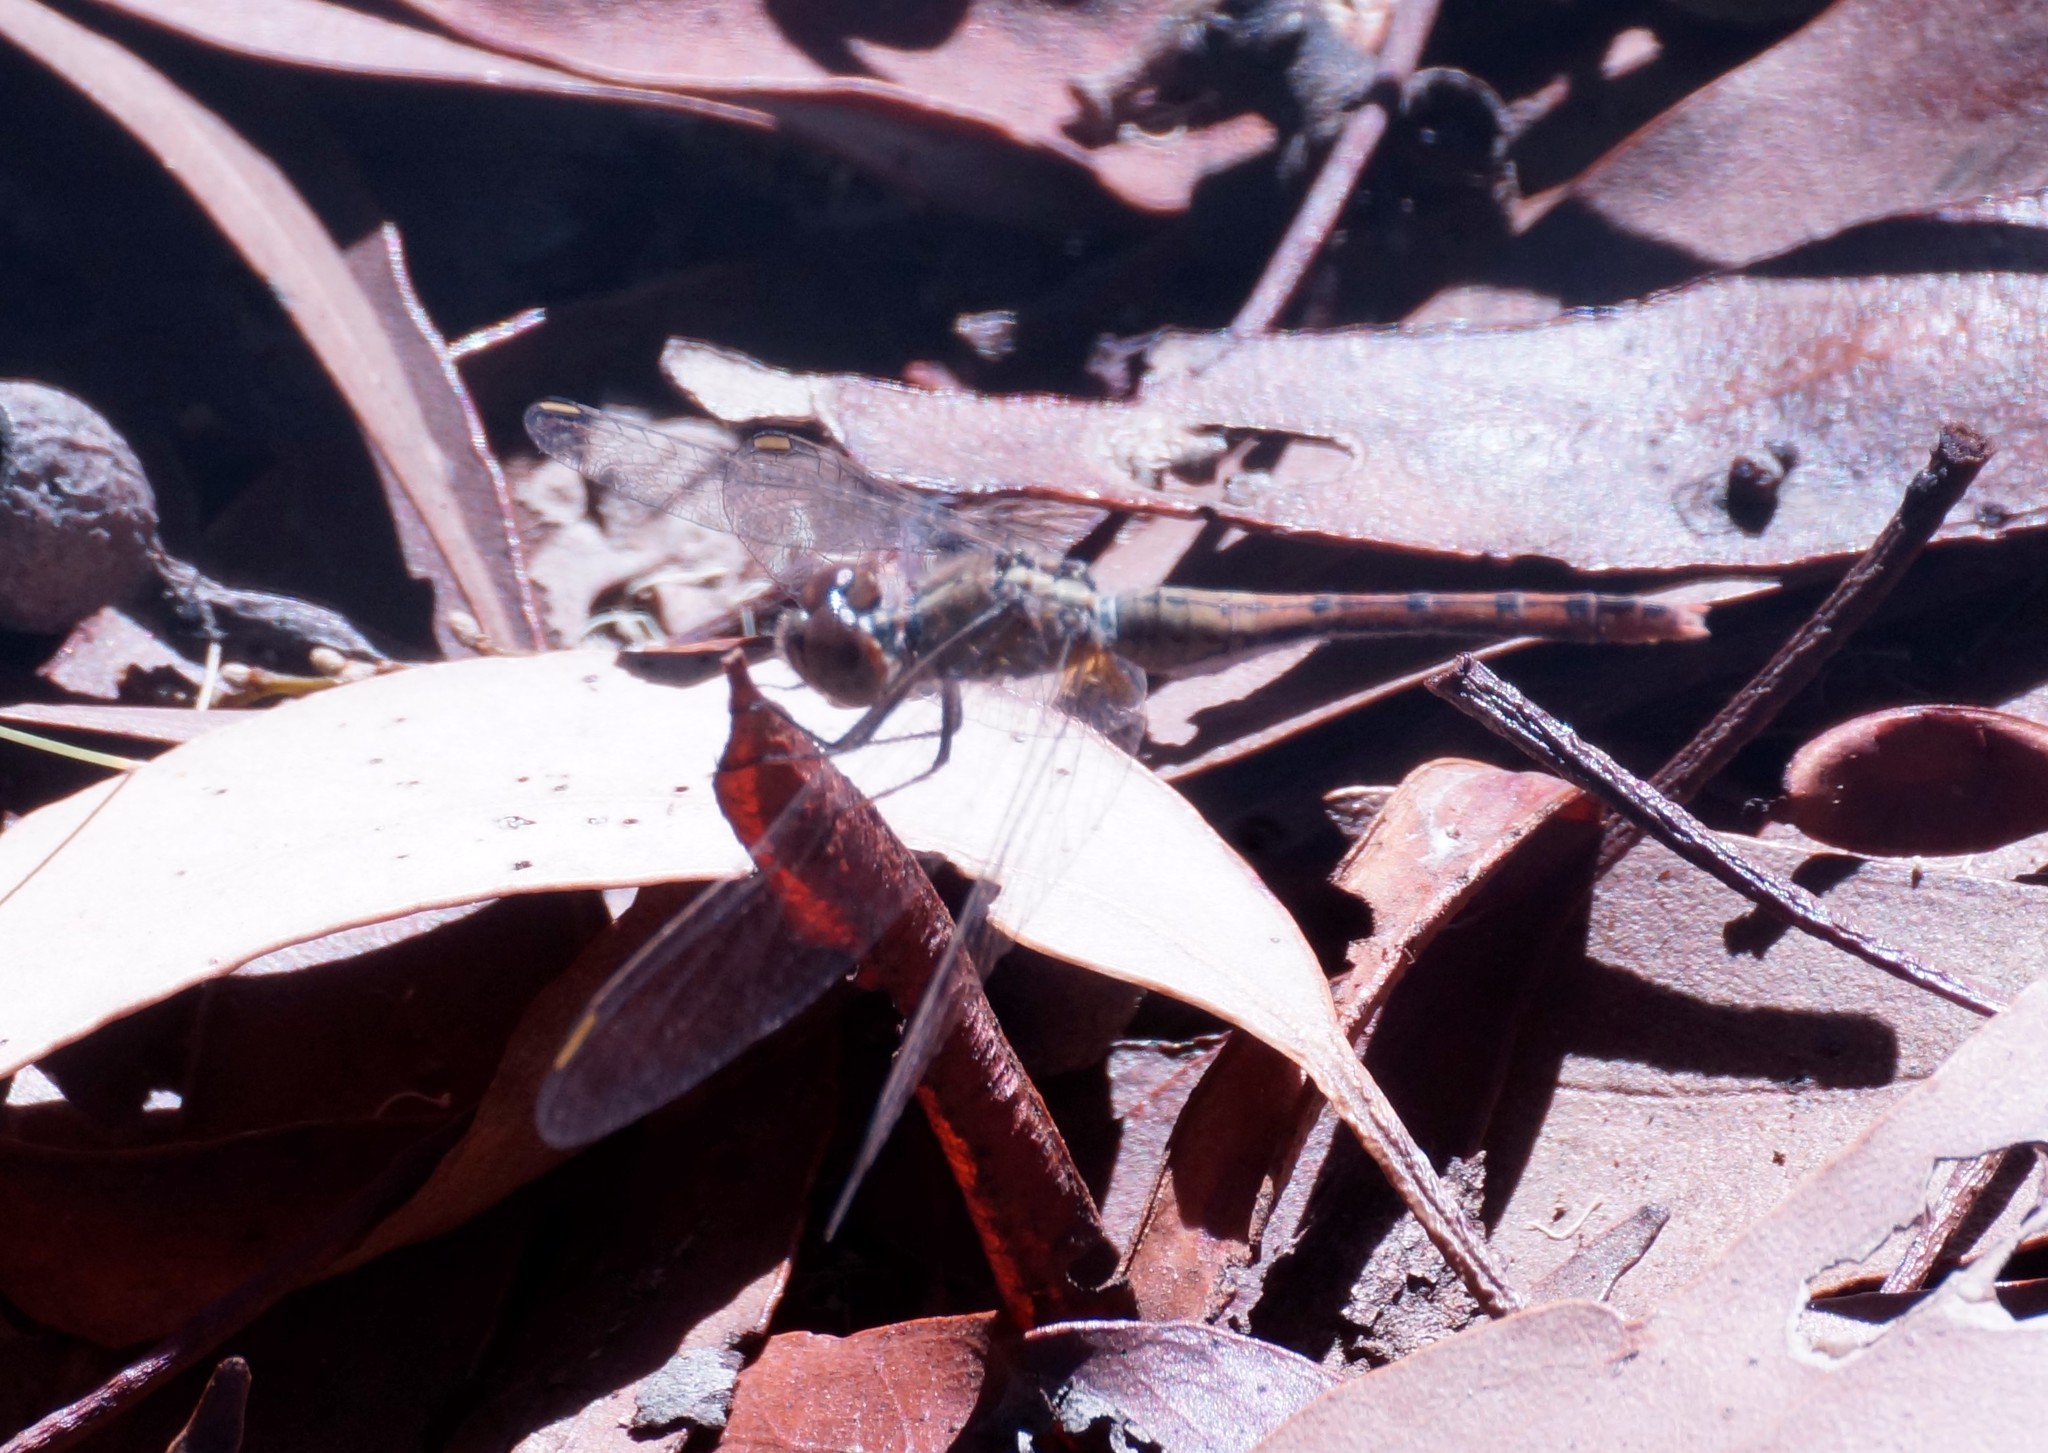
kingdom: Animalia
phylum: Arthropoda
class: Insecta
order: Odonata
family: Libellulidae
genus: Diplacodes
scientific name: Diplacodes bipunctata
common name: Red percher dragonfly
